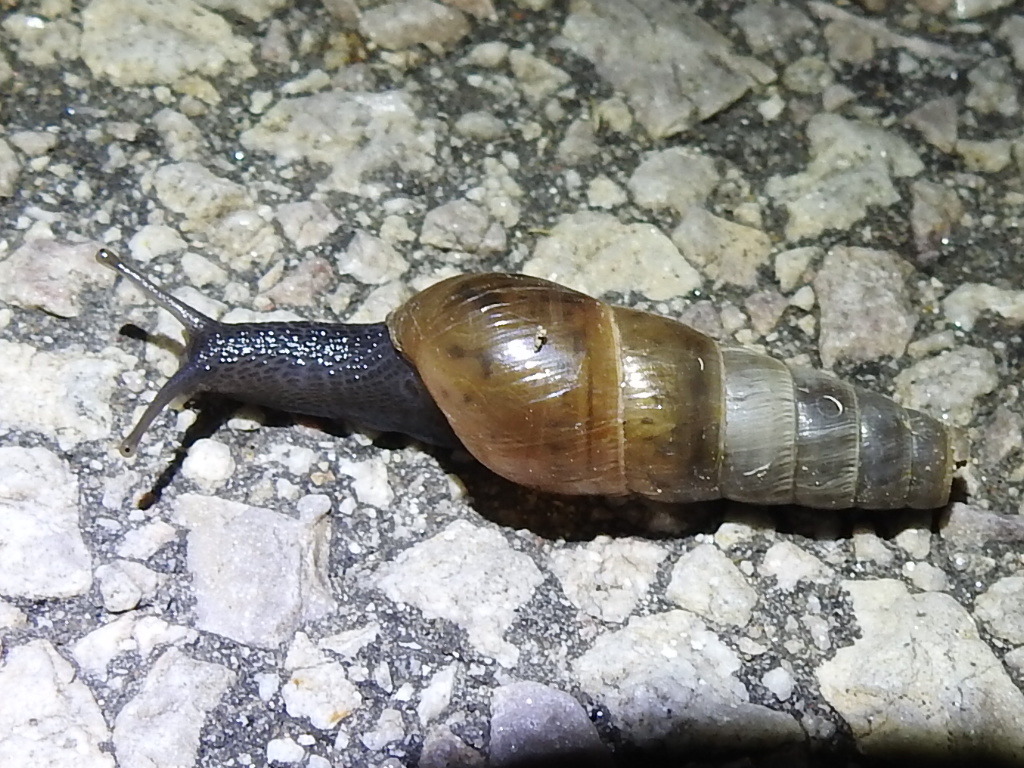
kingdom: Animalia
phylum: Mollusca
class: Gastropoda
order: Stylommatophora
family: Achatinidae
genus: Rumina
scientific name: Rumina decollata
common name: Decollate snail
